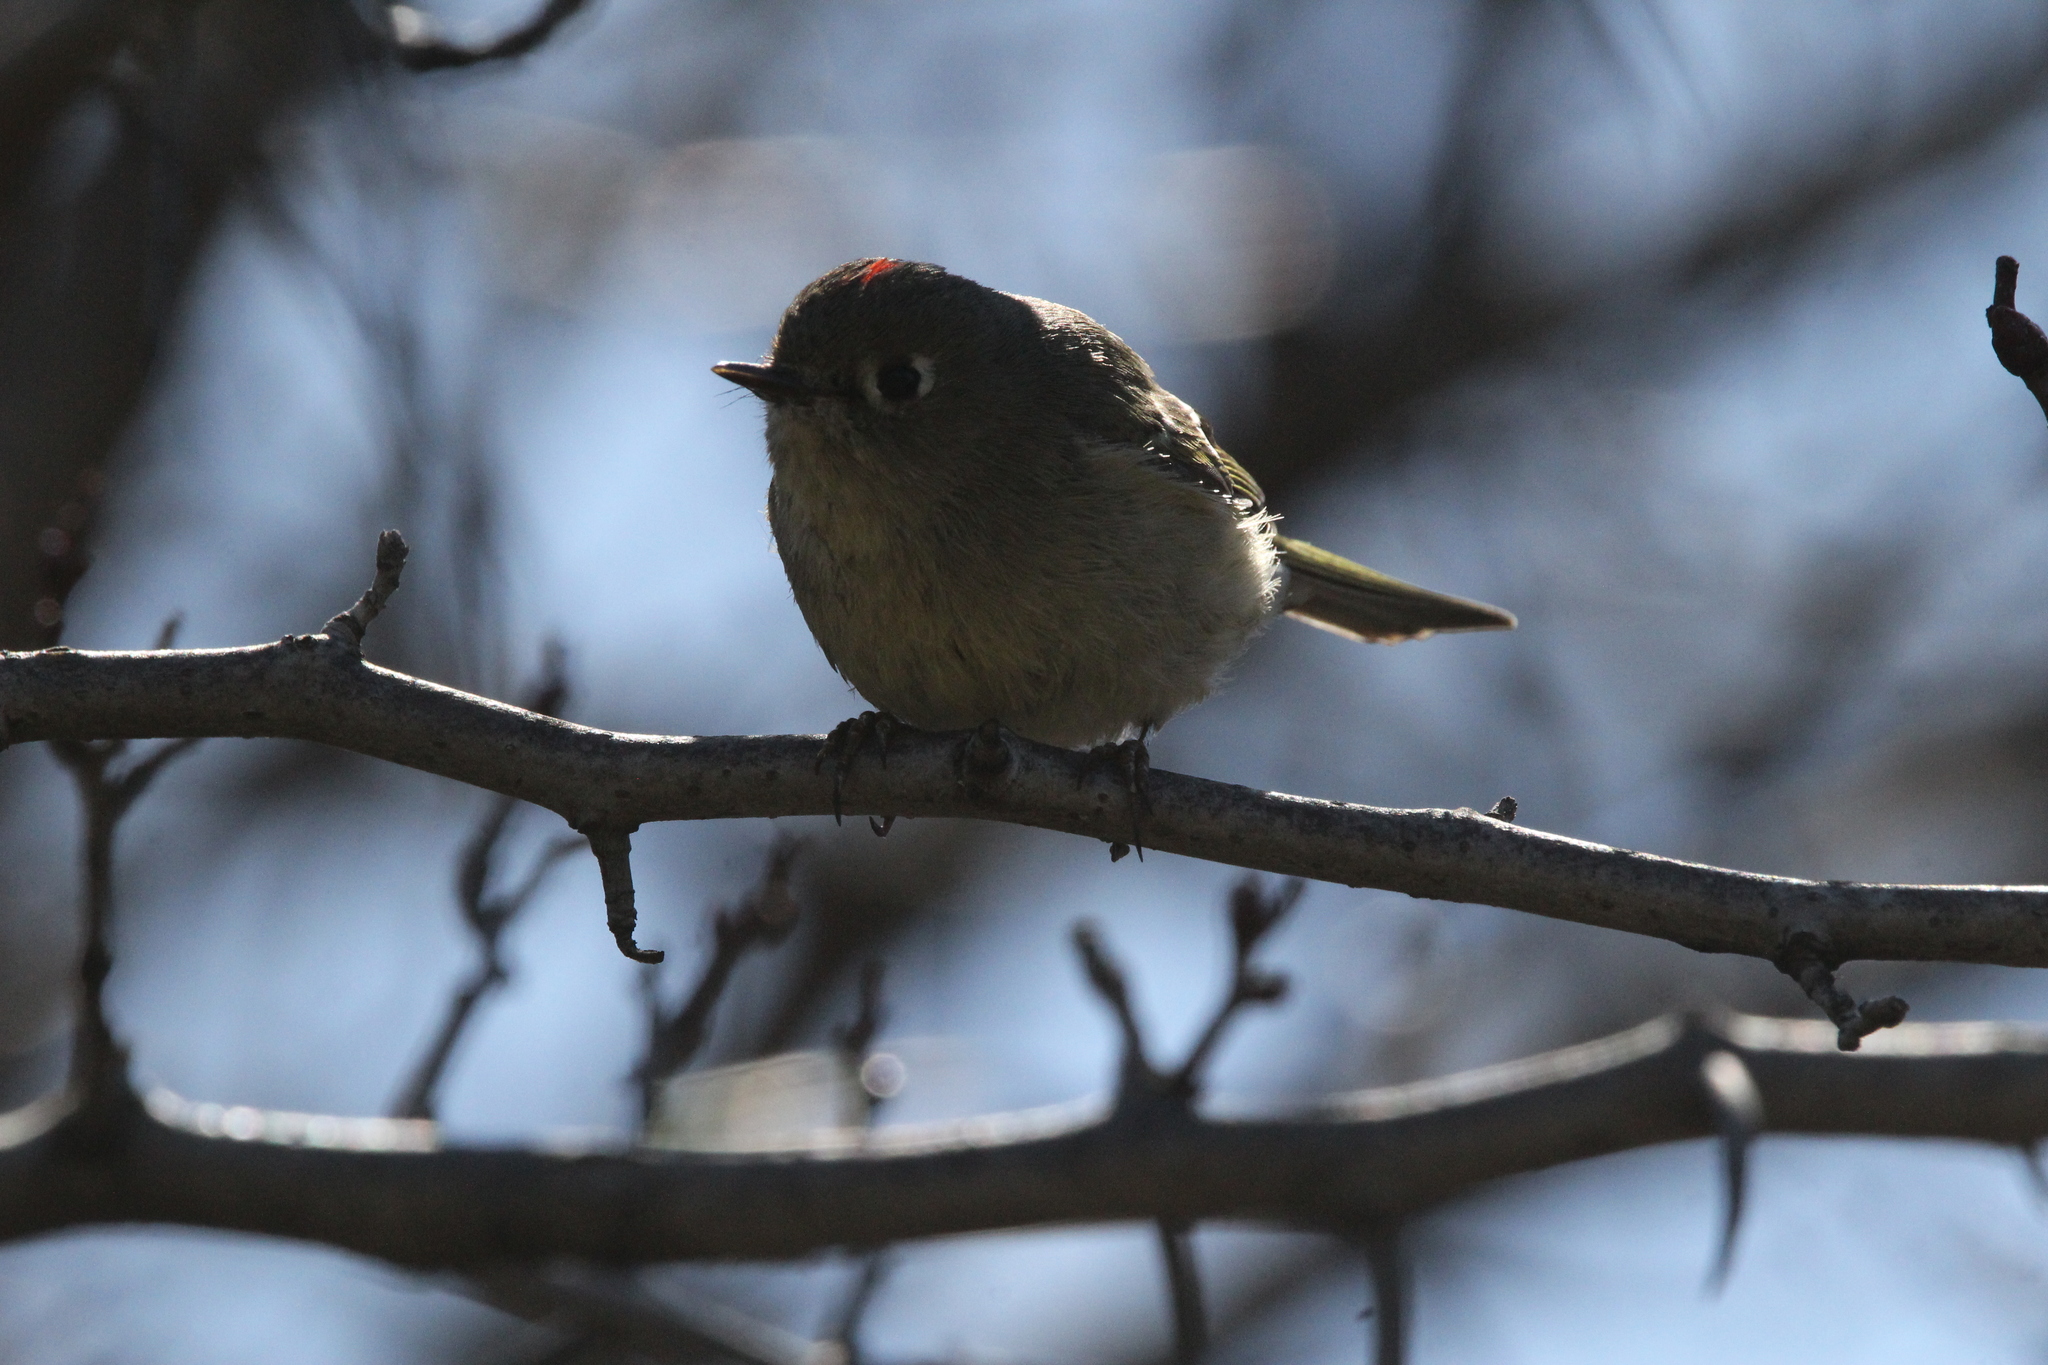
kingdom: Animalia
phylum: Chordata
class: Aves
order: Passeriformes
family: Regulidae
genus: Regulus
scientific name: Regulus calendula
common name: Ruby-crowned kinglet
